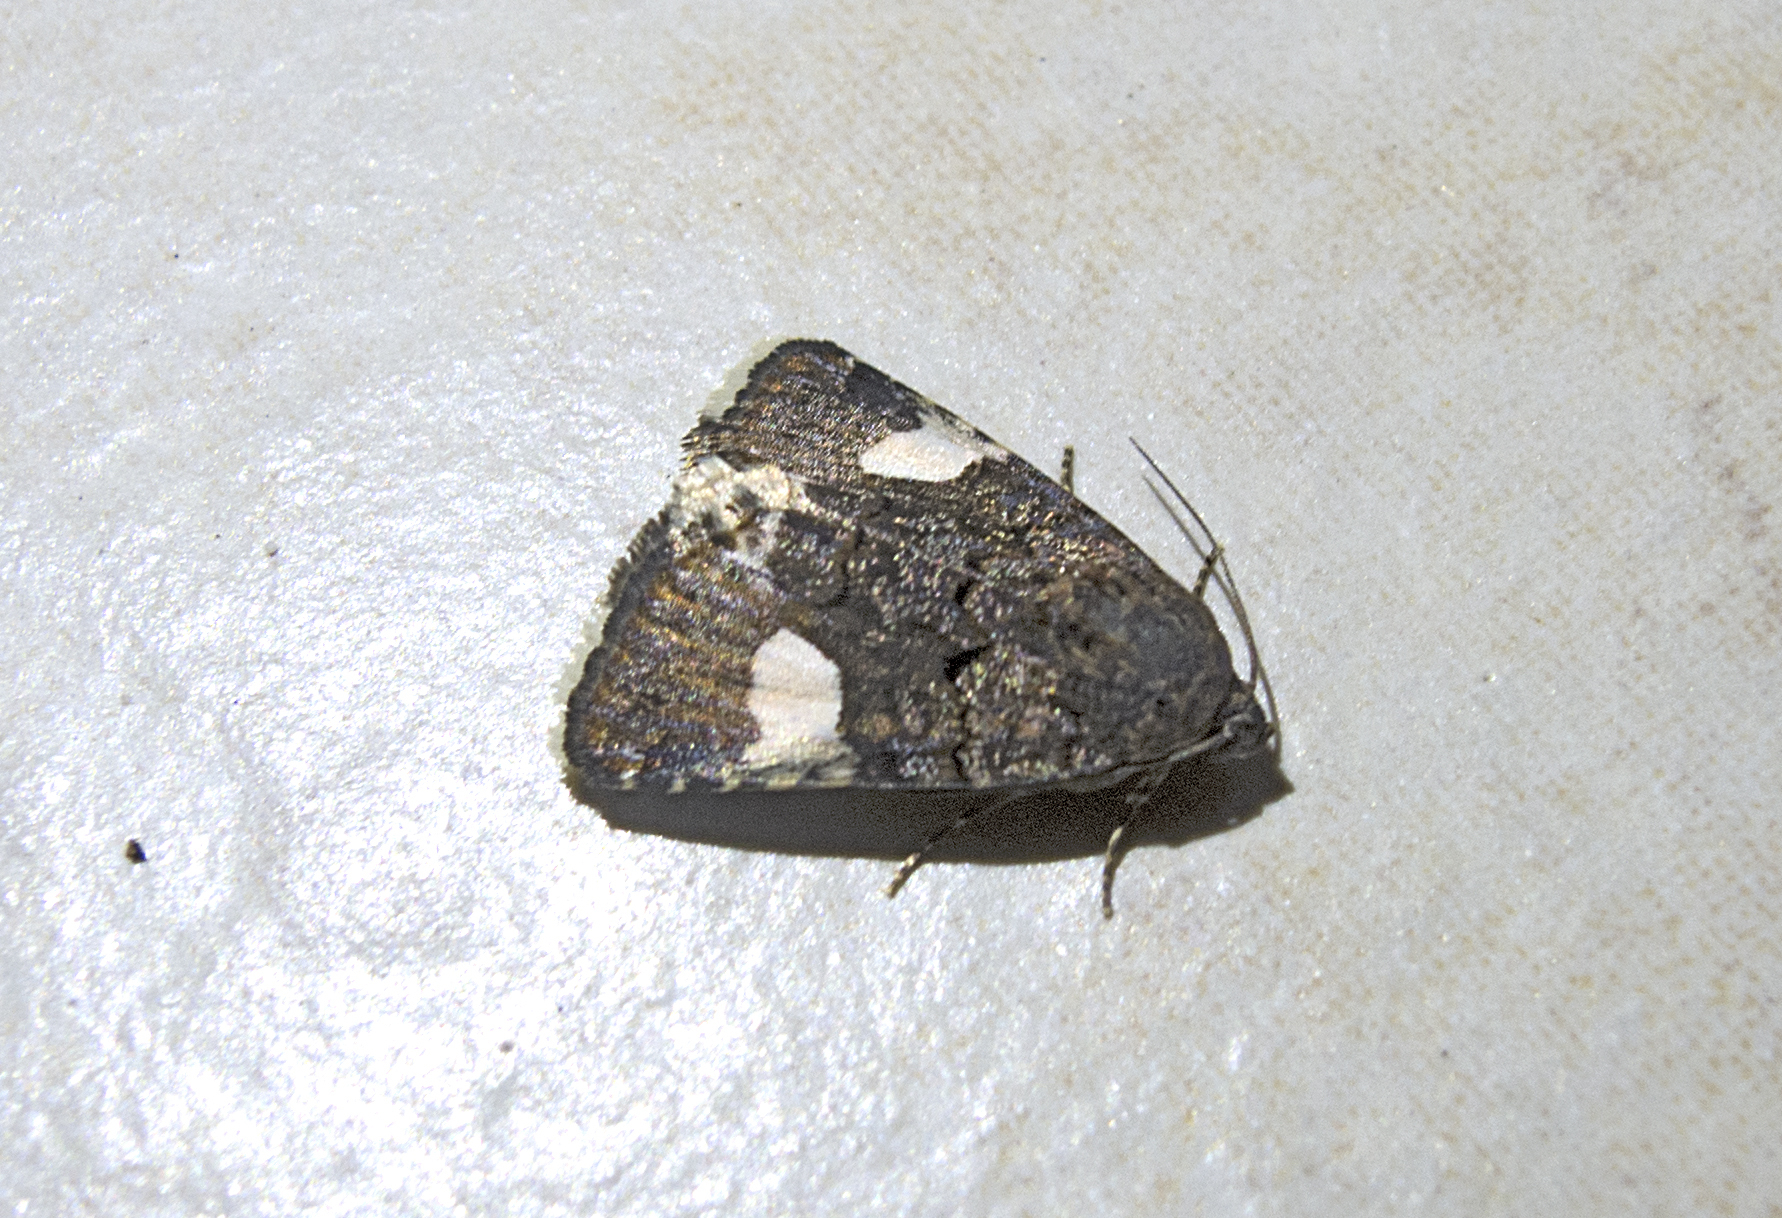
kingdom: Animalia
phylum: Arthropoda
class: Insecta
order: Lepidoptera
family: Erebidae
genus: Tyta
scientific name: Tyta luctuosa
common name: Four-spotted
